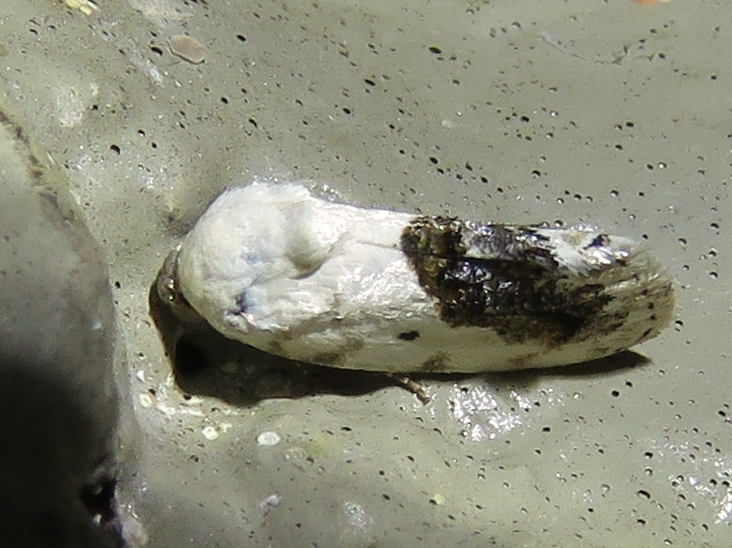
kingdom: Animalia
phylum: Arthropoda
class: Insecta
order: Lepidoptera
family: Noctuidae
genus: Acontia
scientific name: Acontia erastrioides
